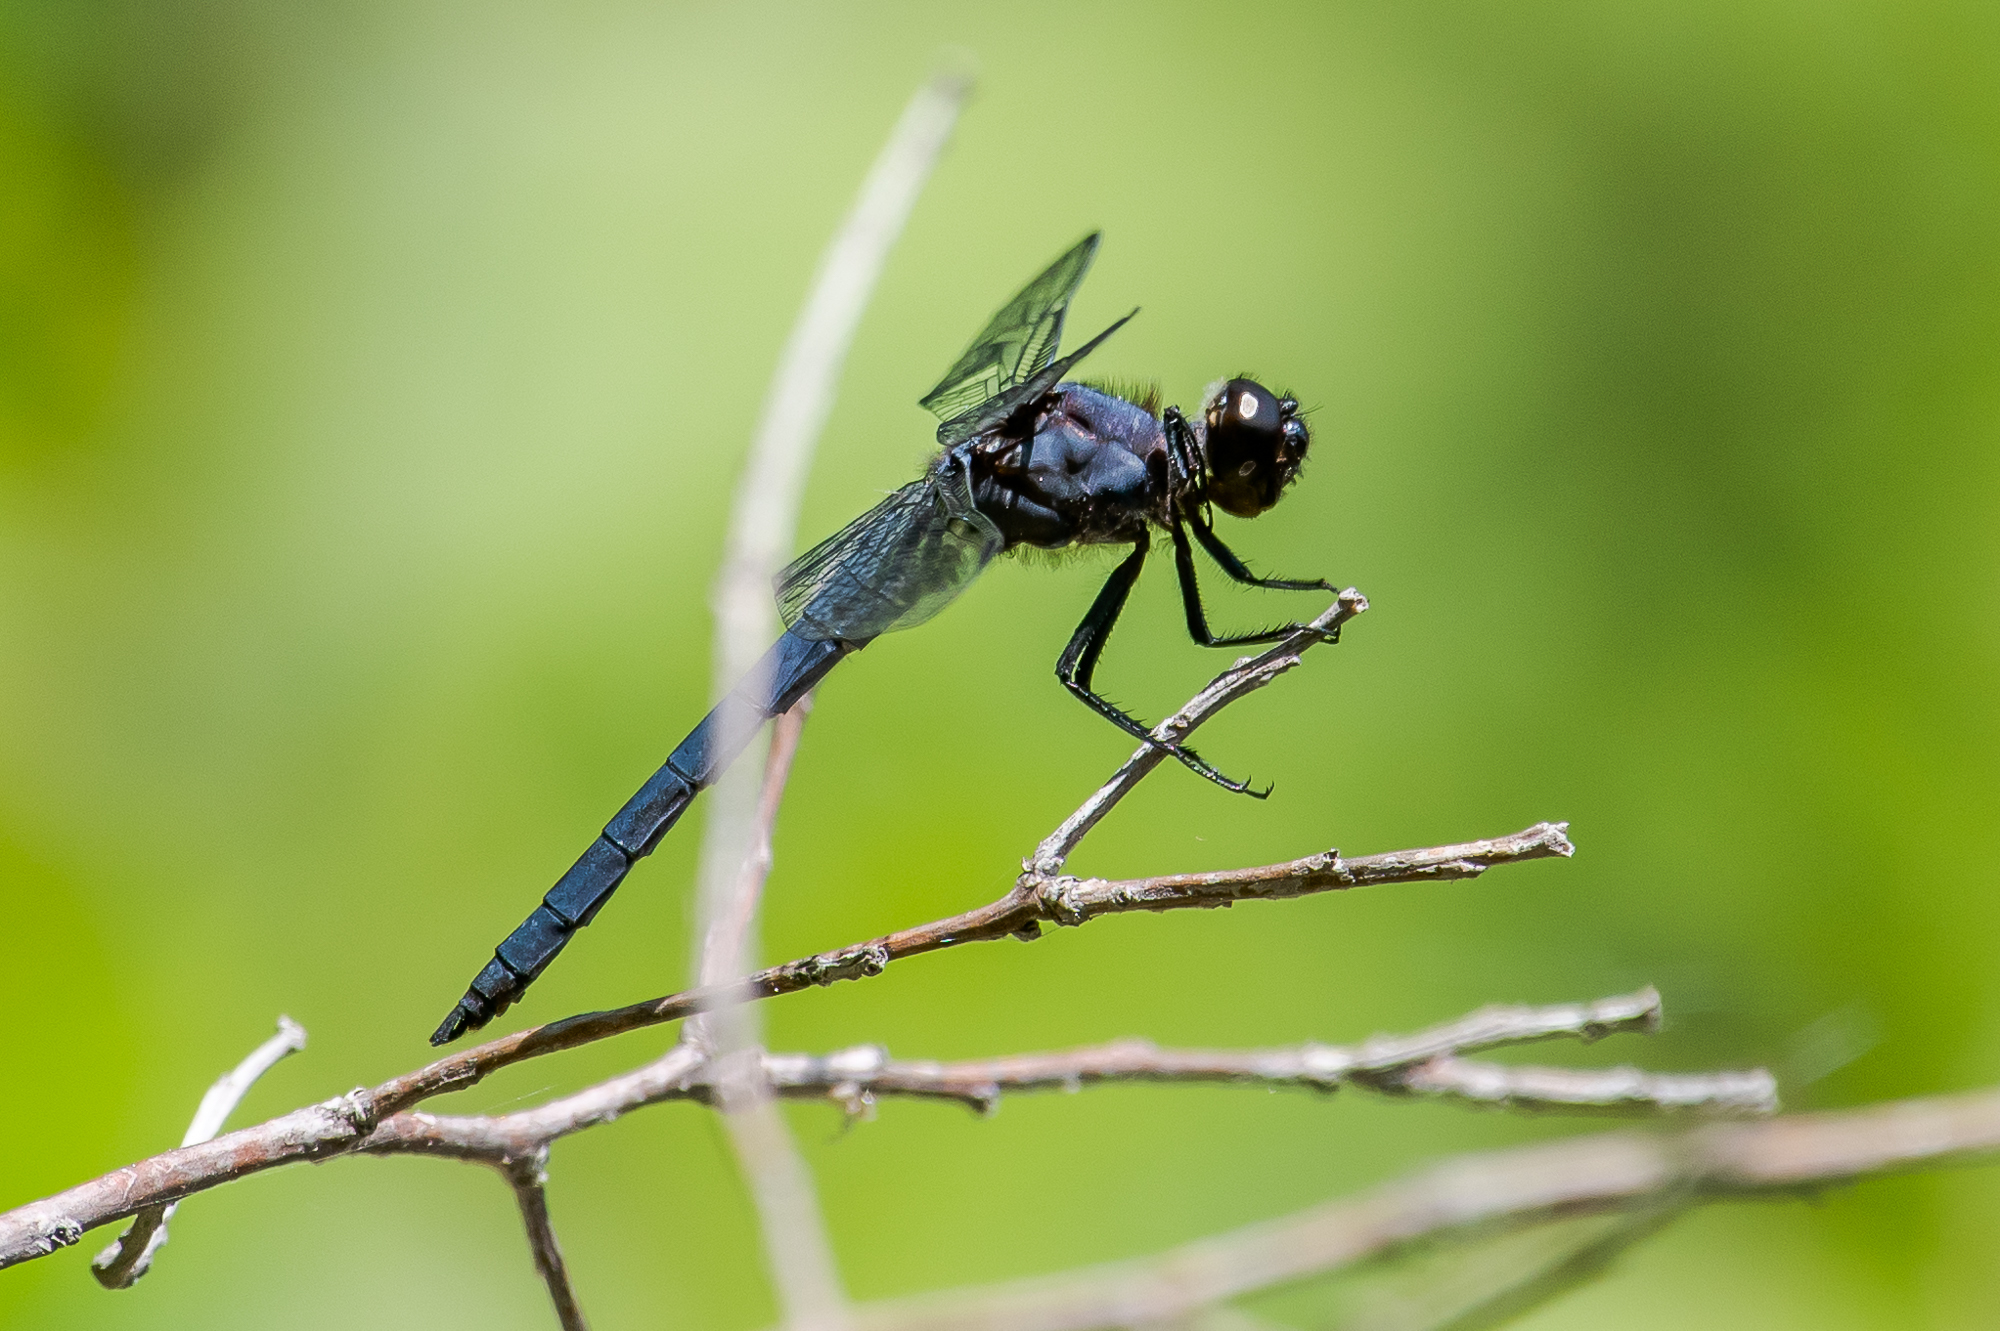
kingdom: Animalia
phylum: Arthropoda
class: Insecta
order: Odonata
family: Libellulidae
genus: Libellula
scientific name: Libellula incesta
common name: Slaty skimmer
